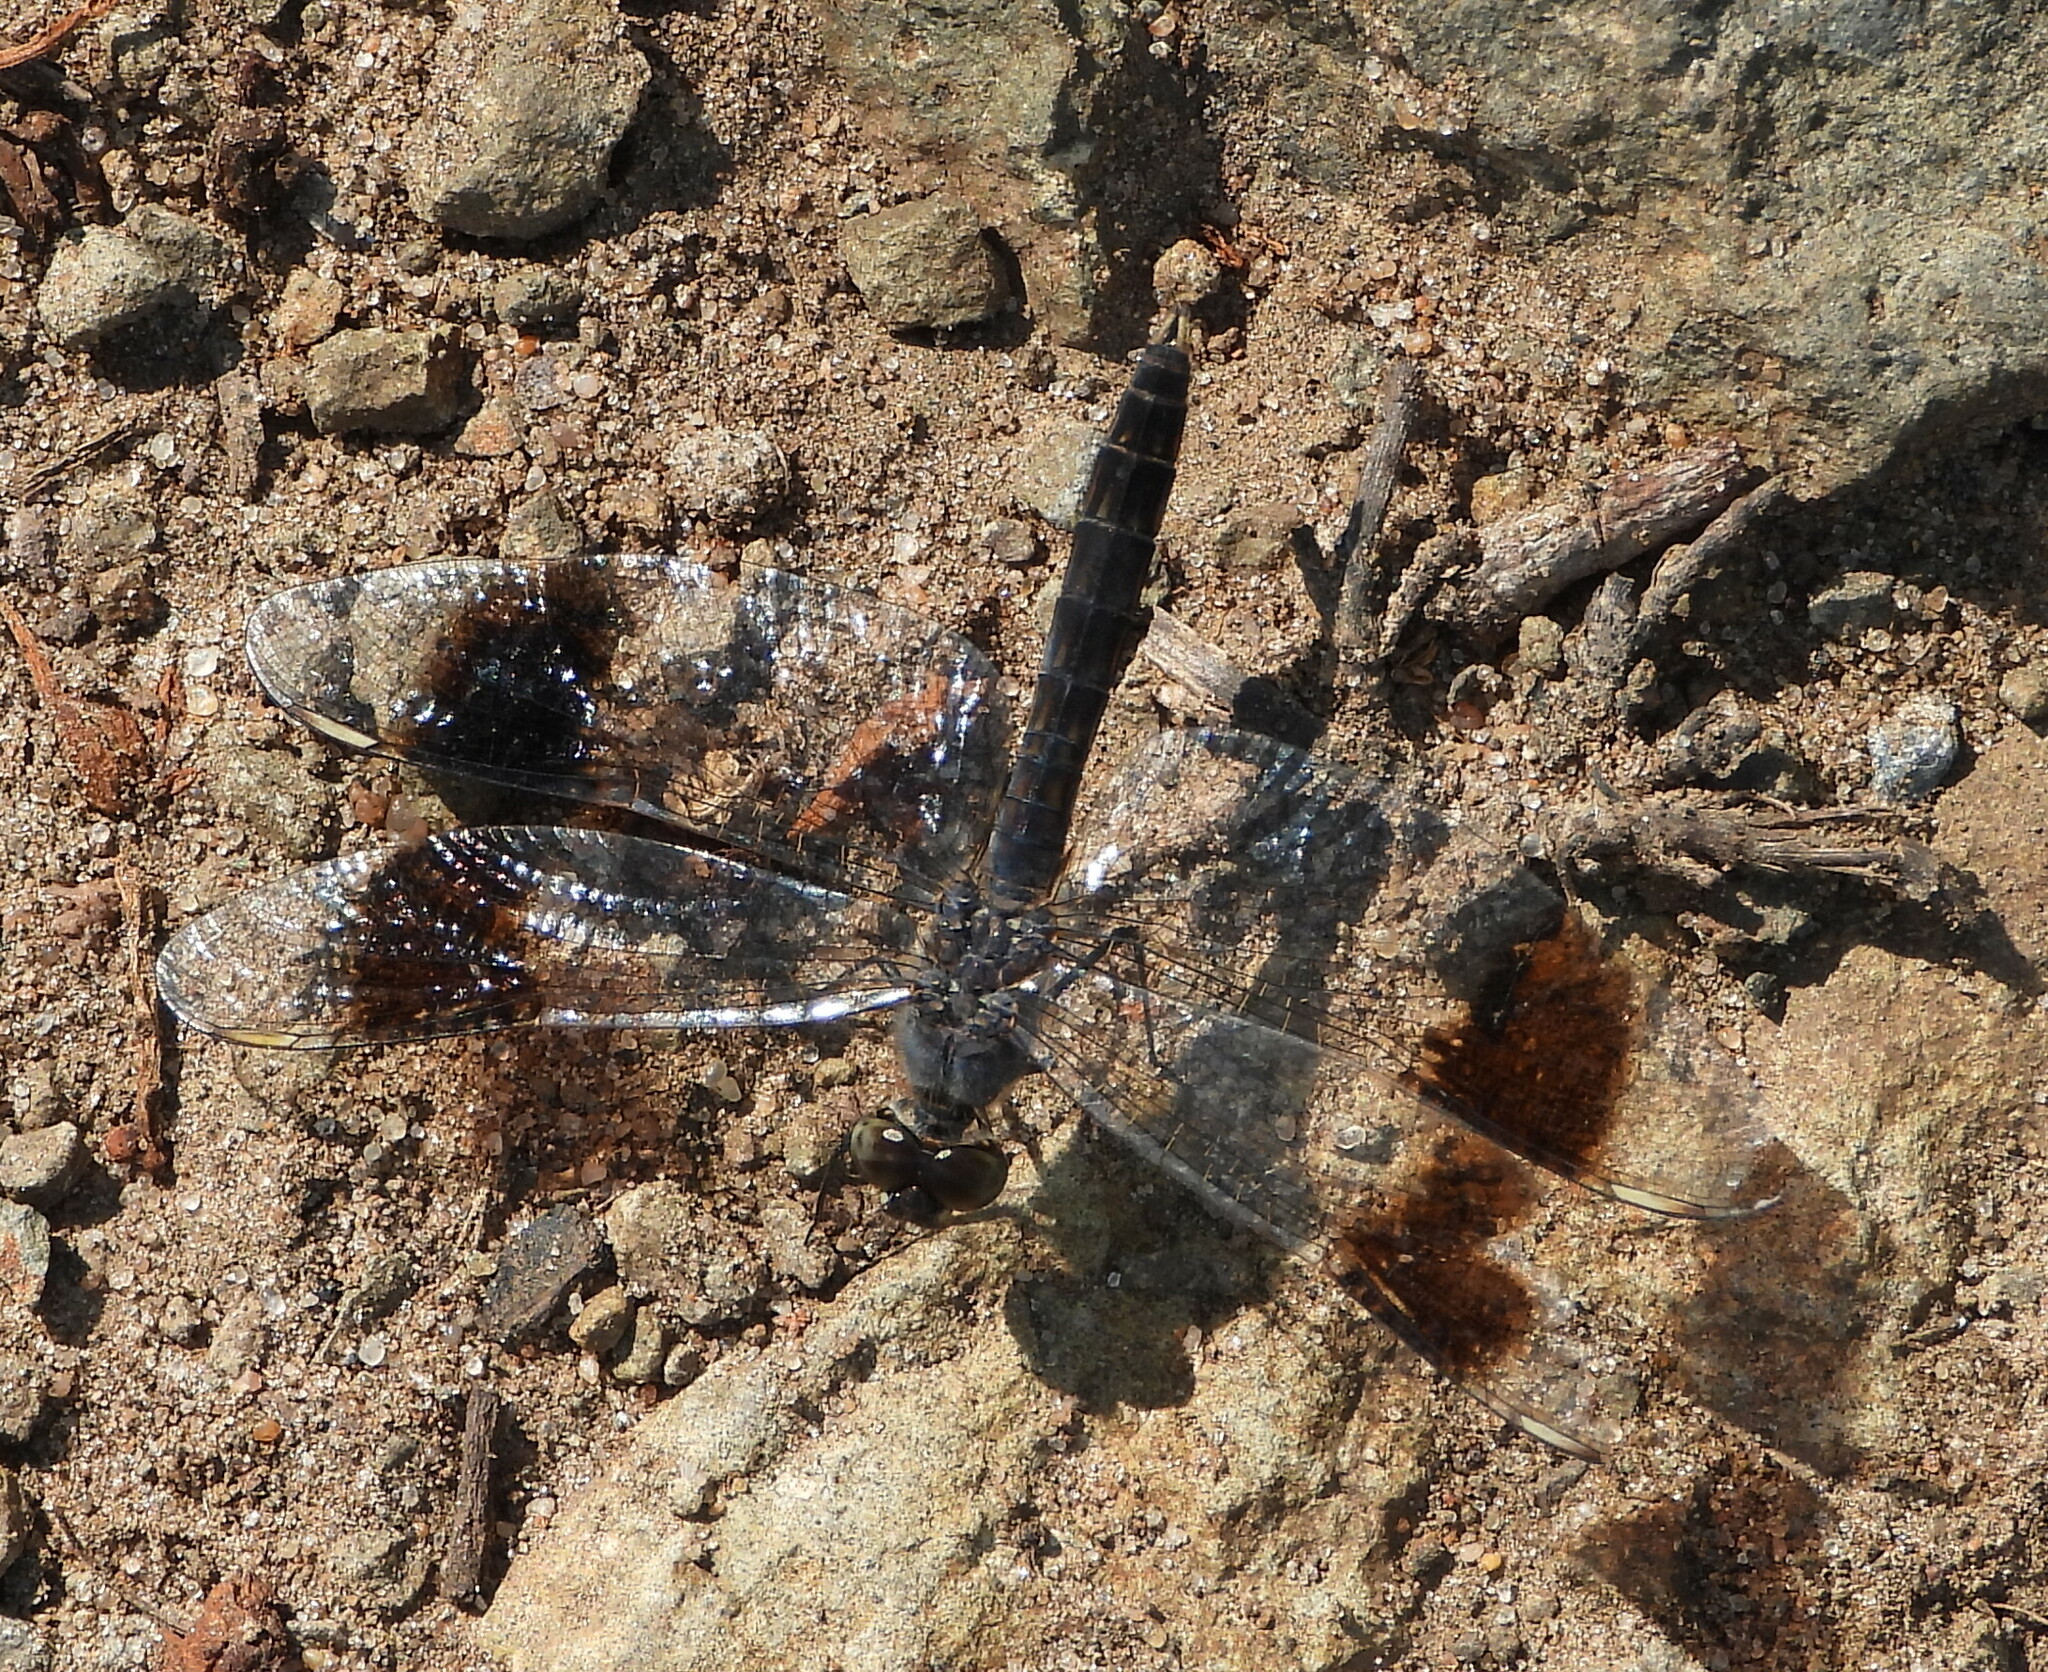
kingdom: Animalia
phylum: Arthropoda
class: Insecta
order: Odonata
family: Libellulidae
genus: Brachythemis
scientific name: Brachythemis leucosticta
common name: Banded groundling
